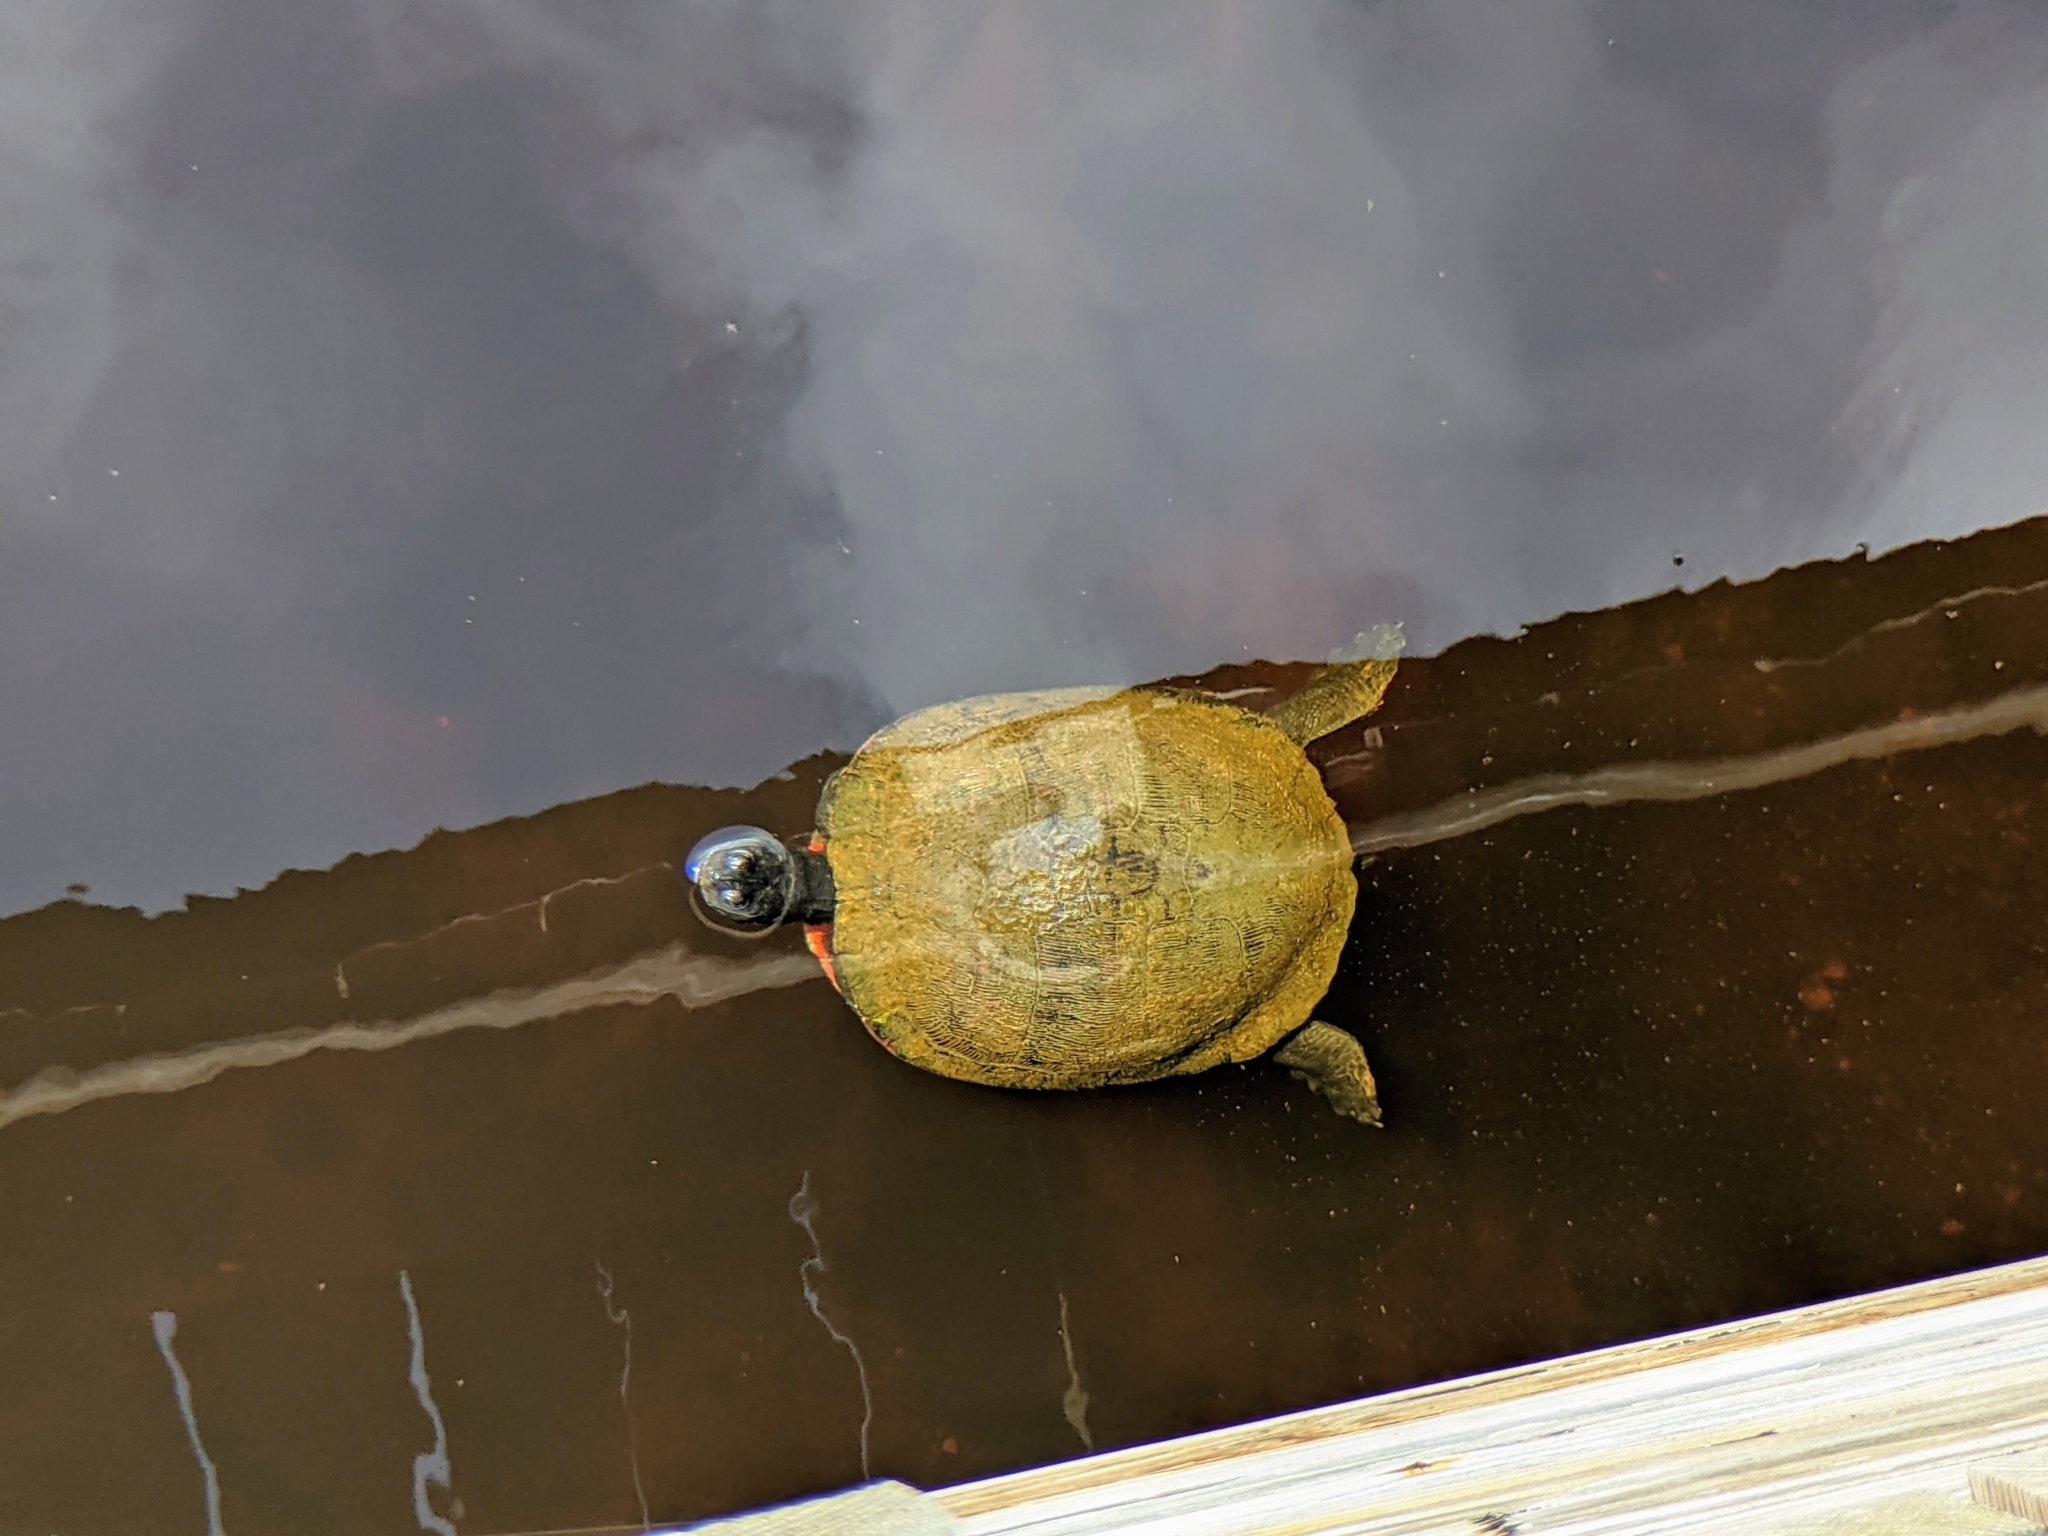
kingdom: Animalia
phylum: Chordata
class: Testudines
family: Emydidae
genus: Pseudemys
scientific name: Pseudemys rubriventris
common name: American red-bellied turtle
